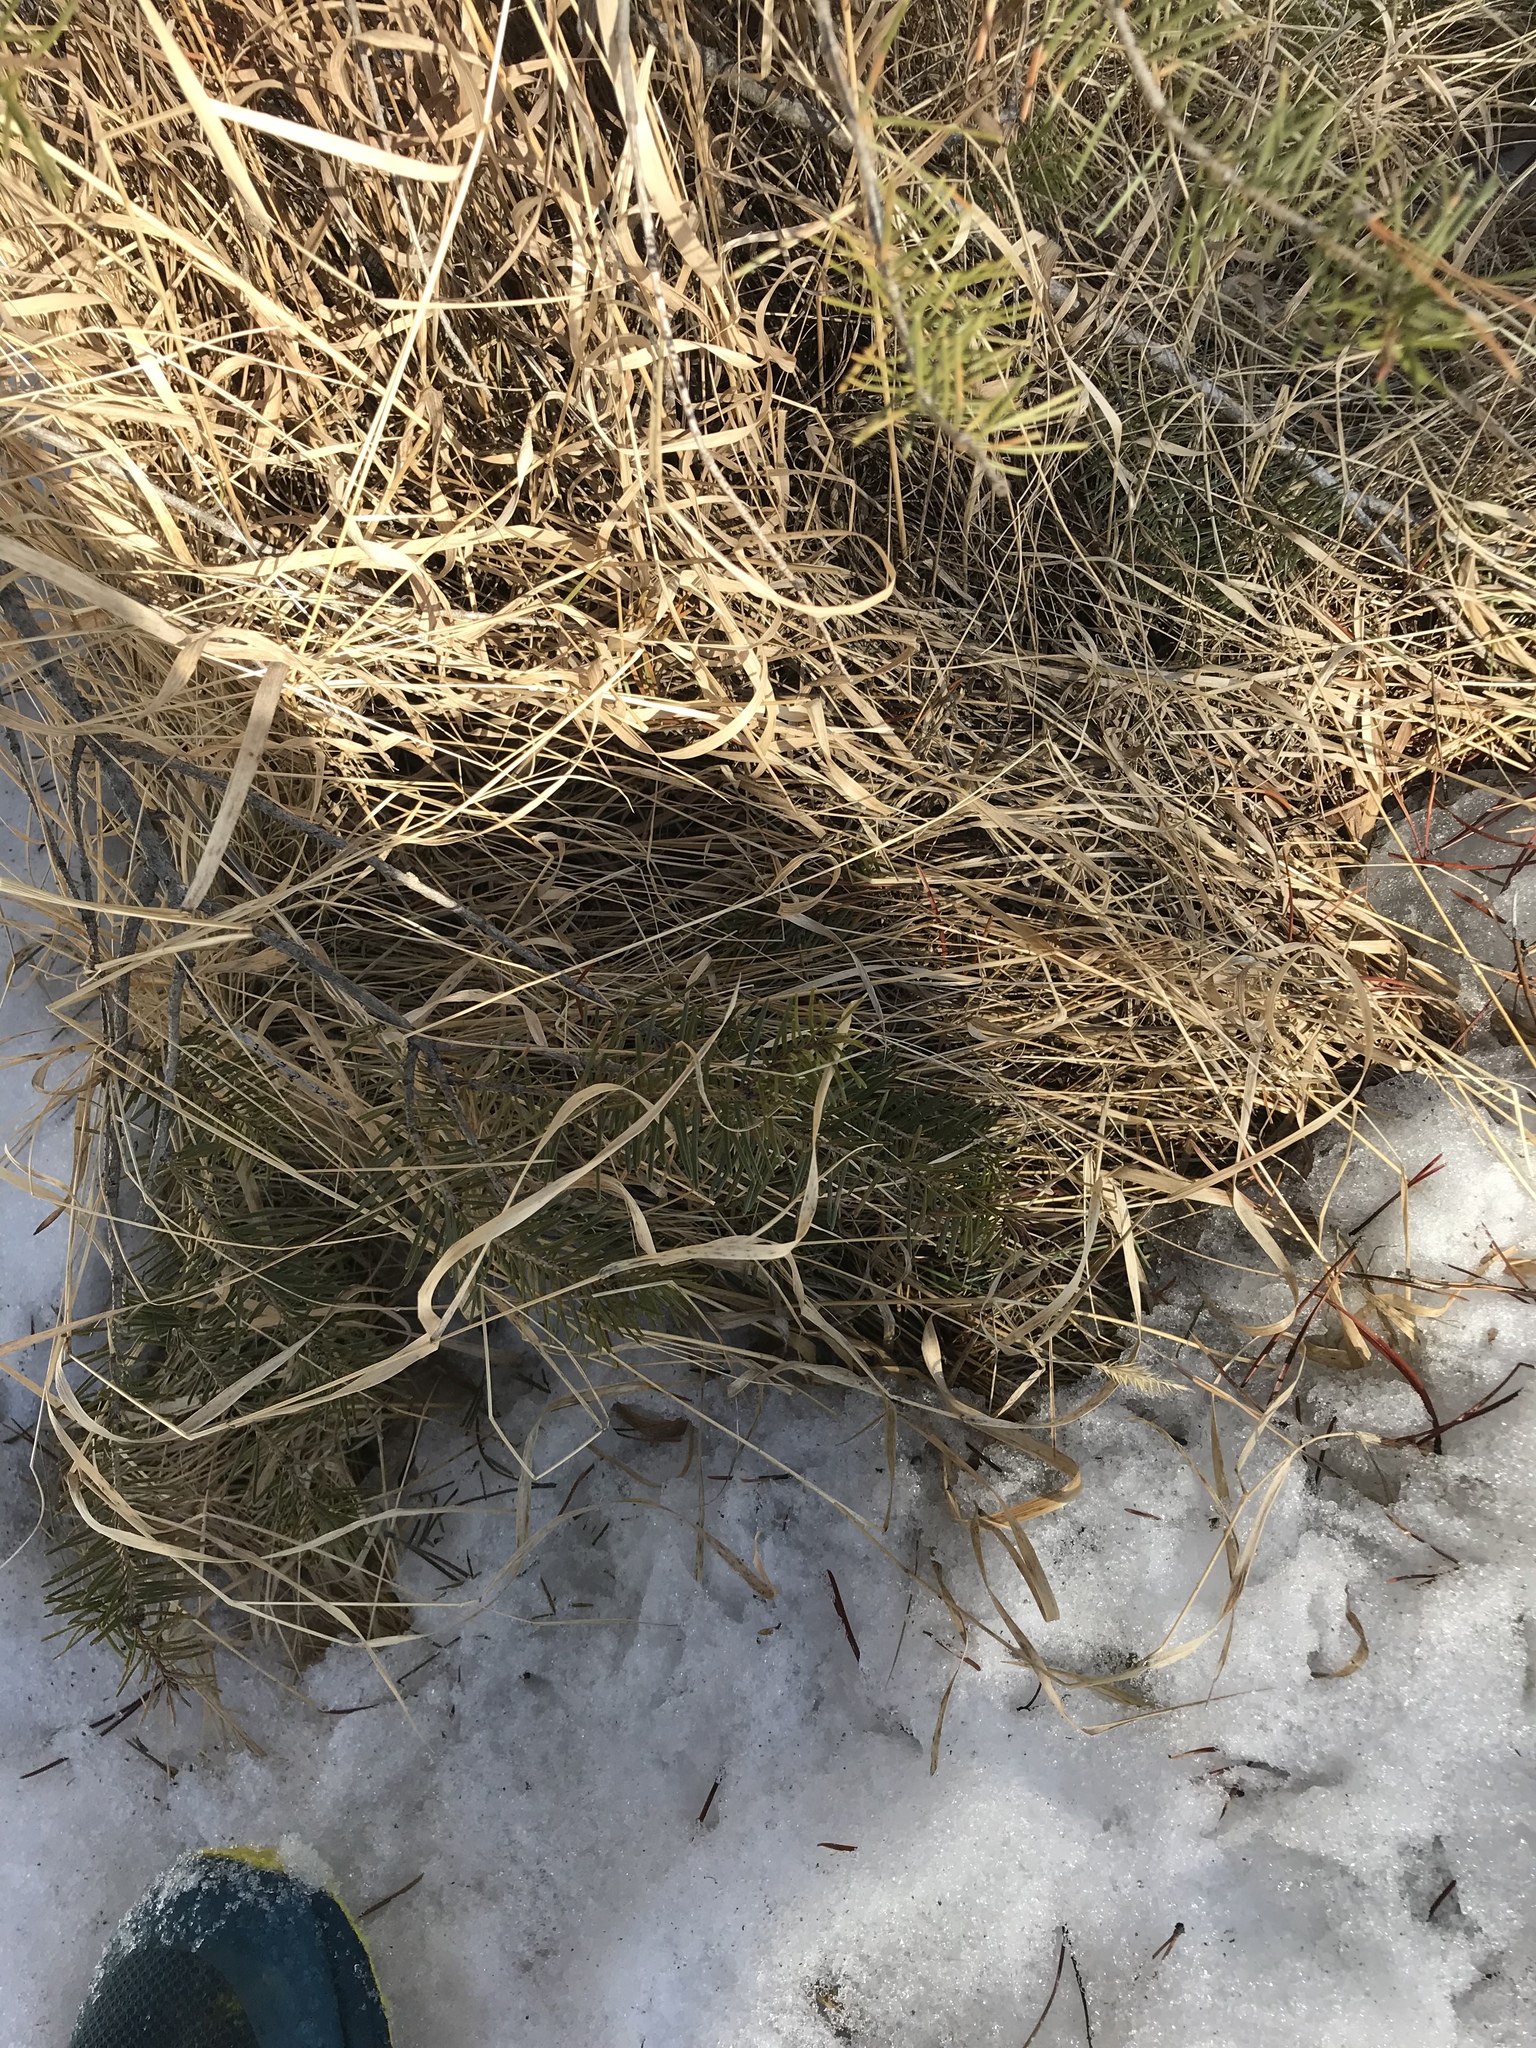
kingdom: Plantae
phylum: Tracheophyta
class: Liliopsida
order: Poales
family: Poaceae
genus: Agropyron
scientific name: Agropyron cristatum
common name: Crested wheatgrass
